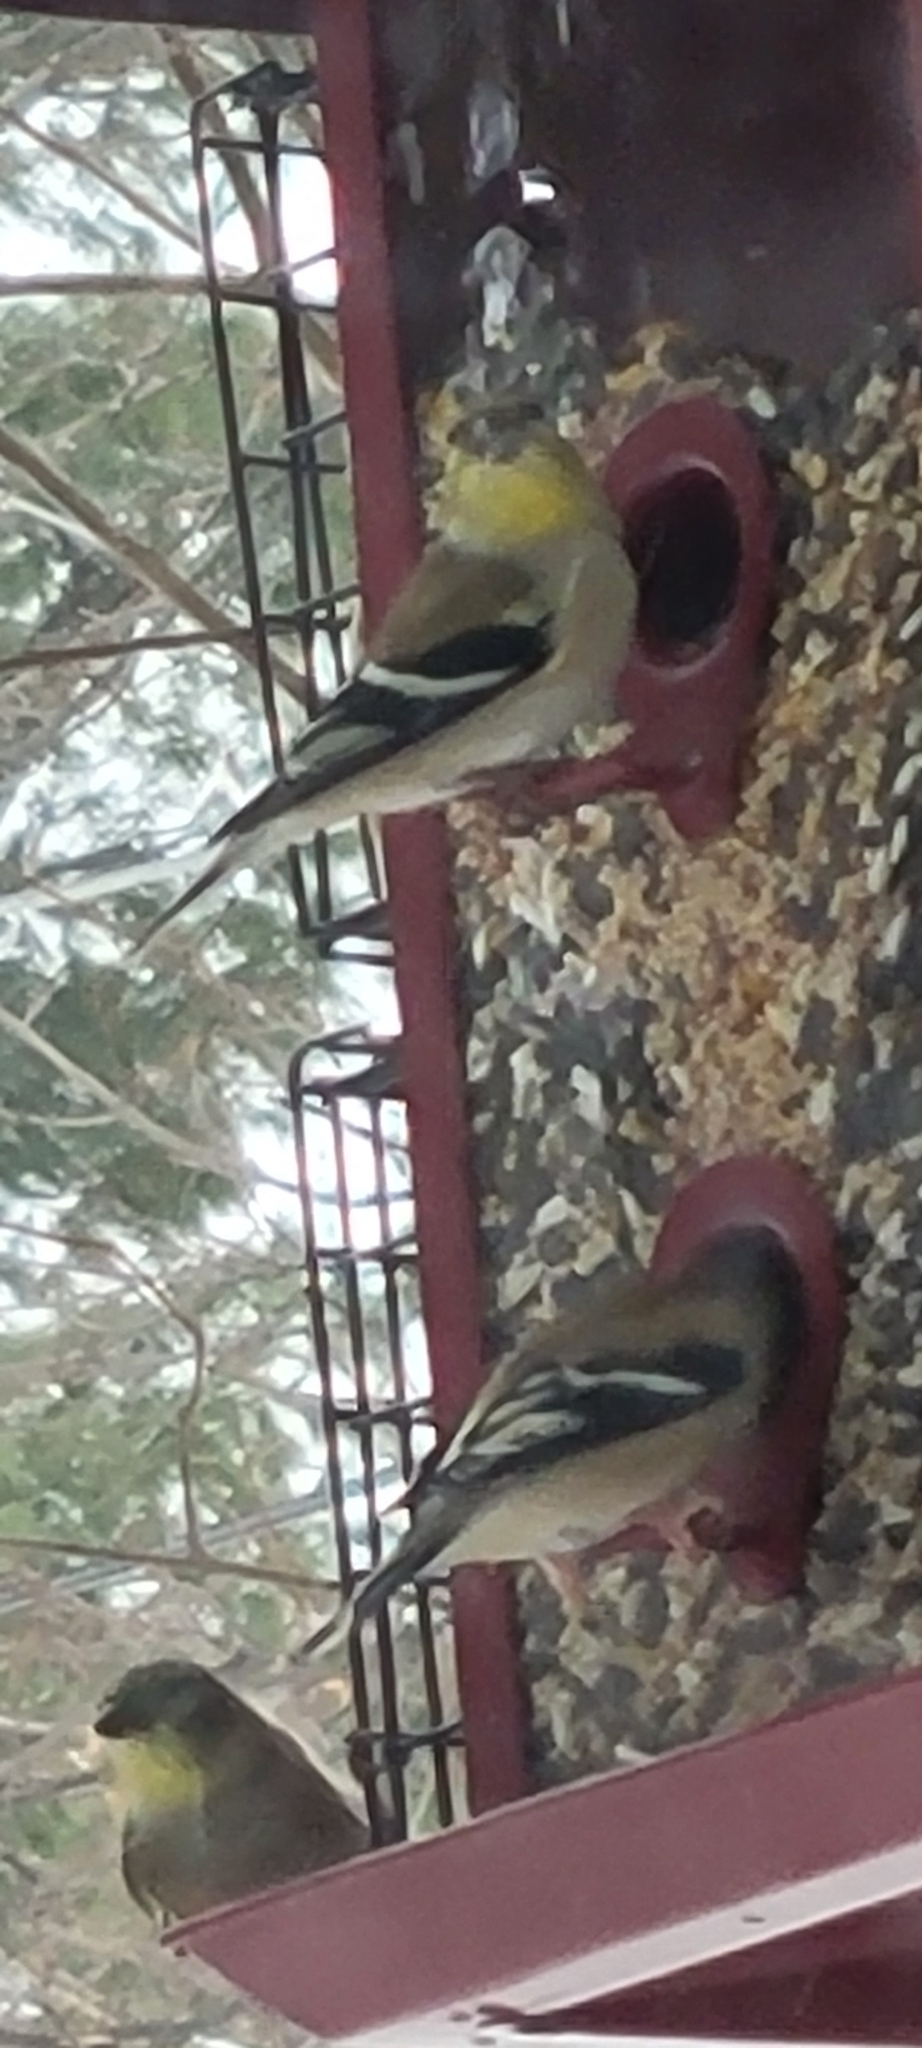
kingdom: Animalia
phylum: Chordata
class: Aves
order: Passeriformes
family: Fringillidae
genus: Spinus
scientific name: Spinus tristis
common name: American goldfinch
